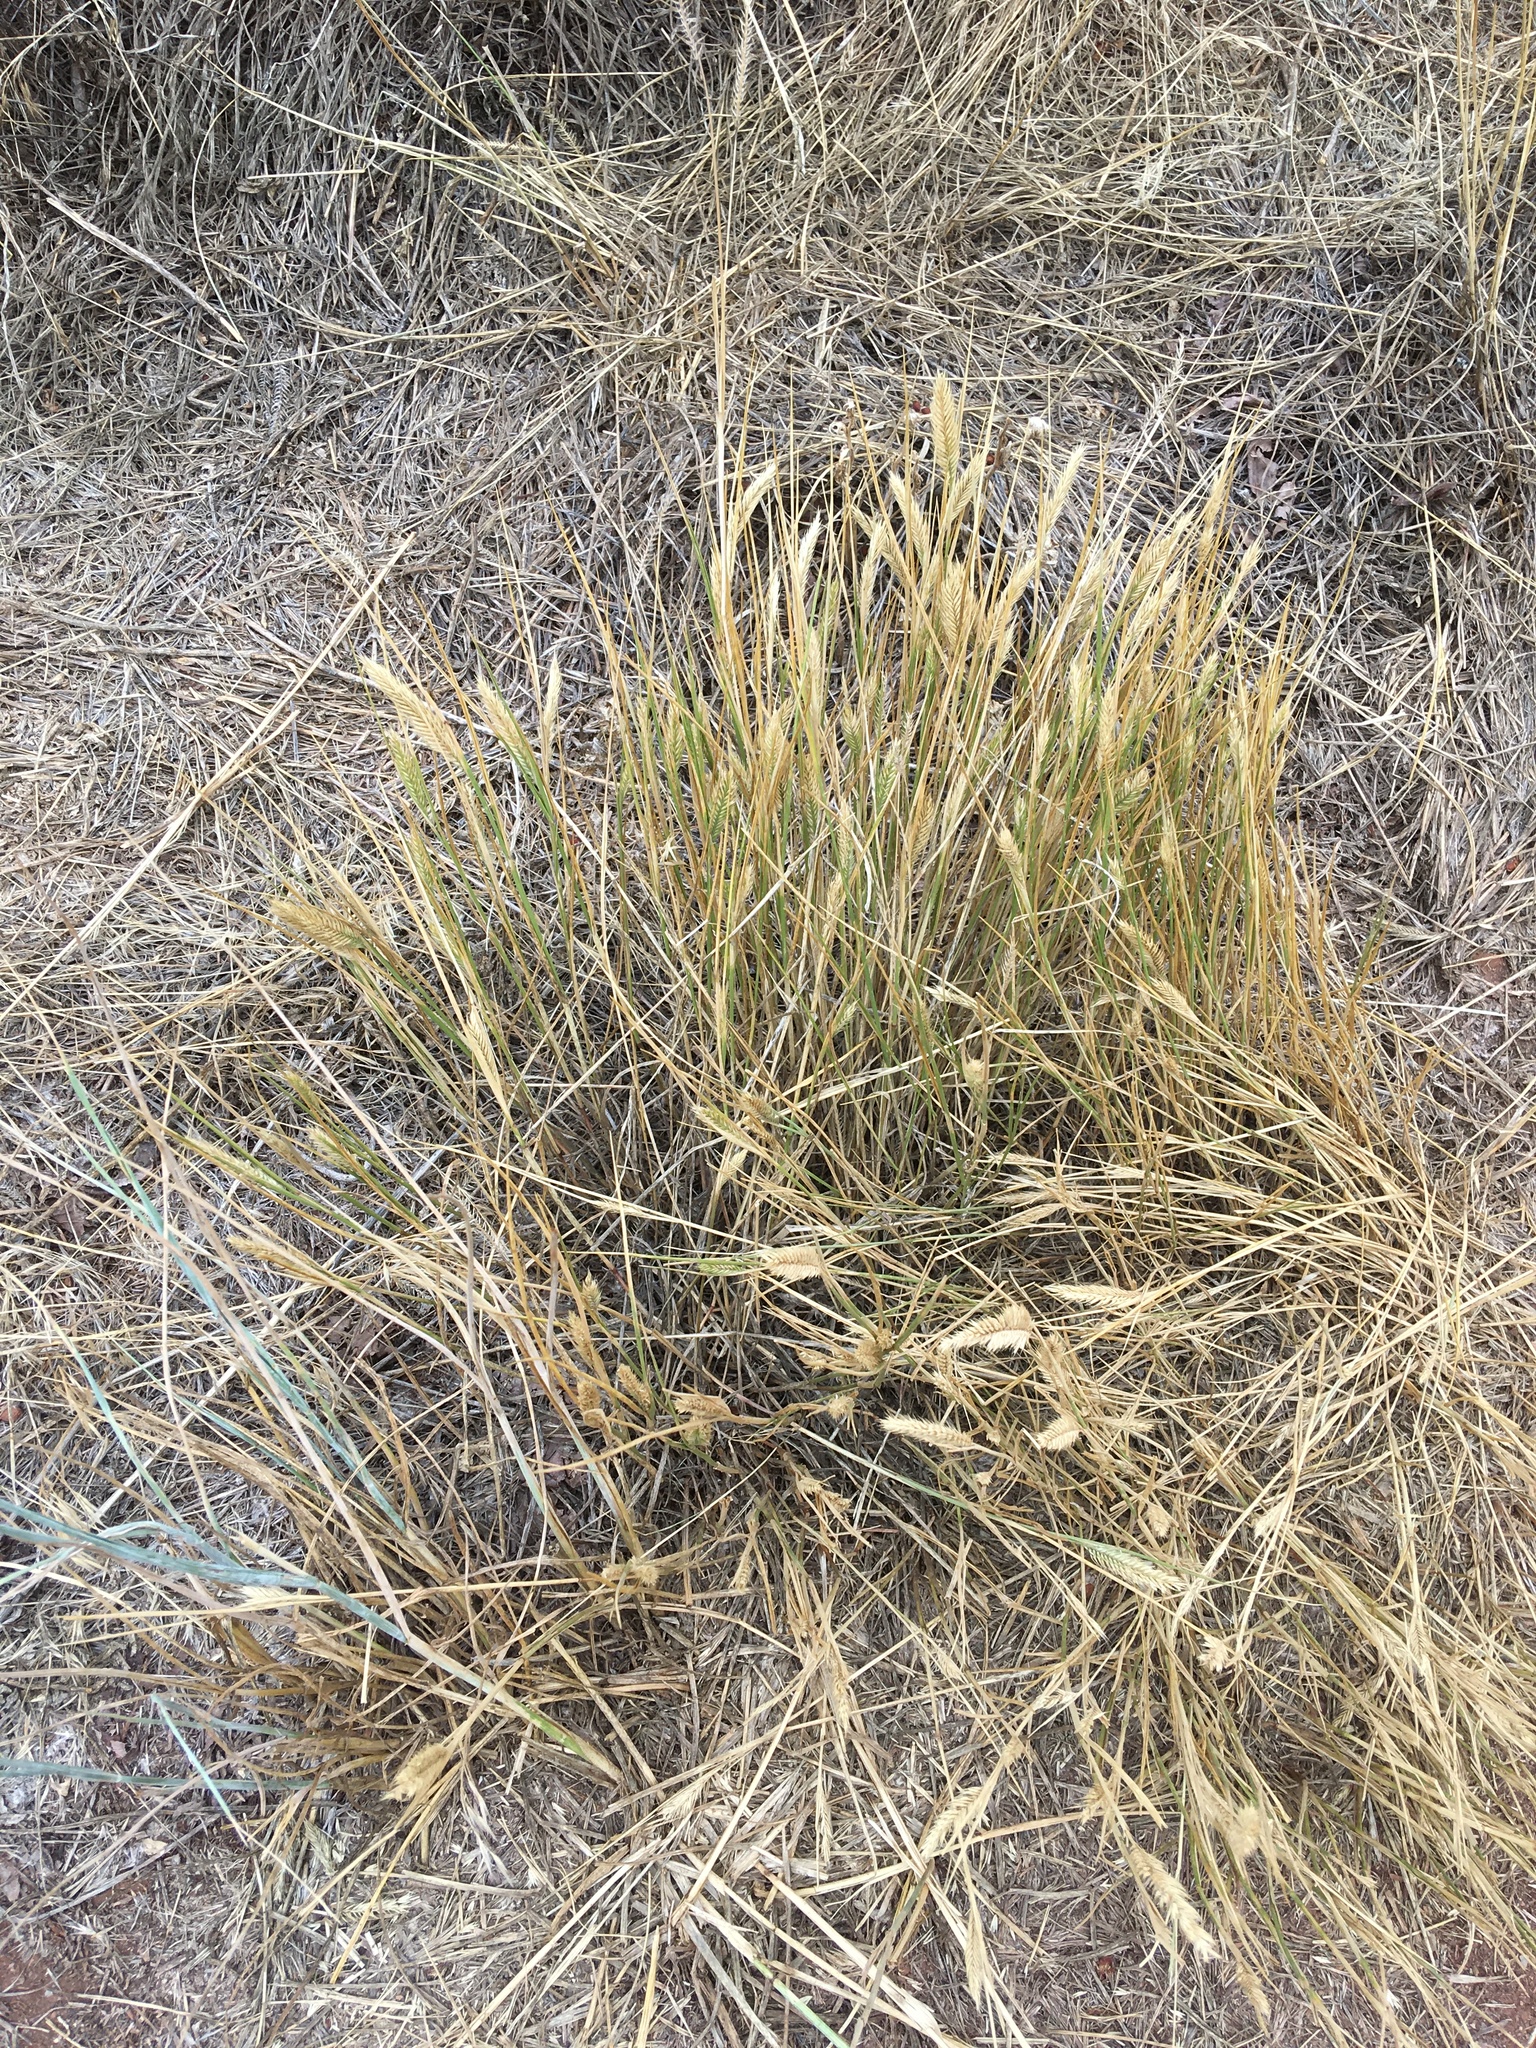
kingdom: Plantae
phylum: Tracheophyta
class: Liliopsida
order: Poales
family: Poaceae
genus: Agropyron
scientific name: Agropyron cristatum
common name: Crested wheatgrass
